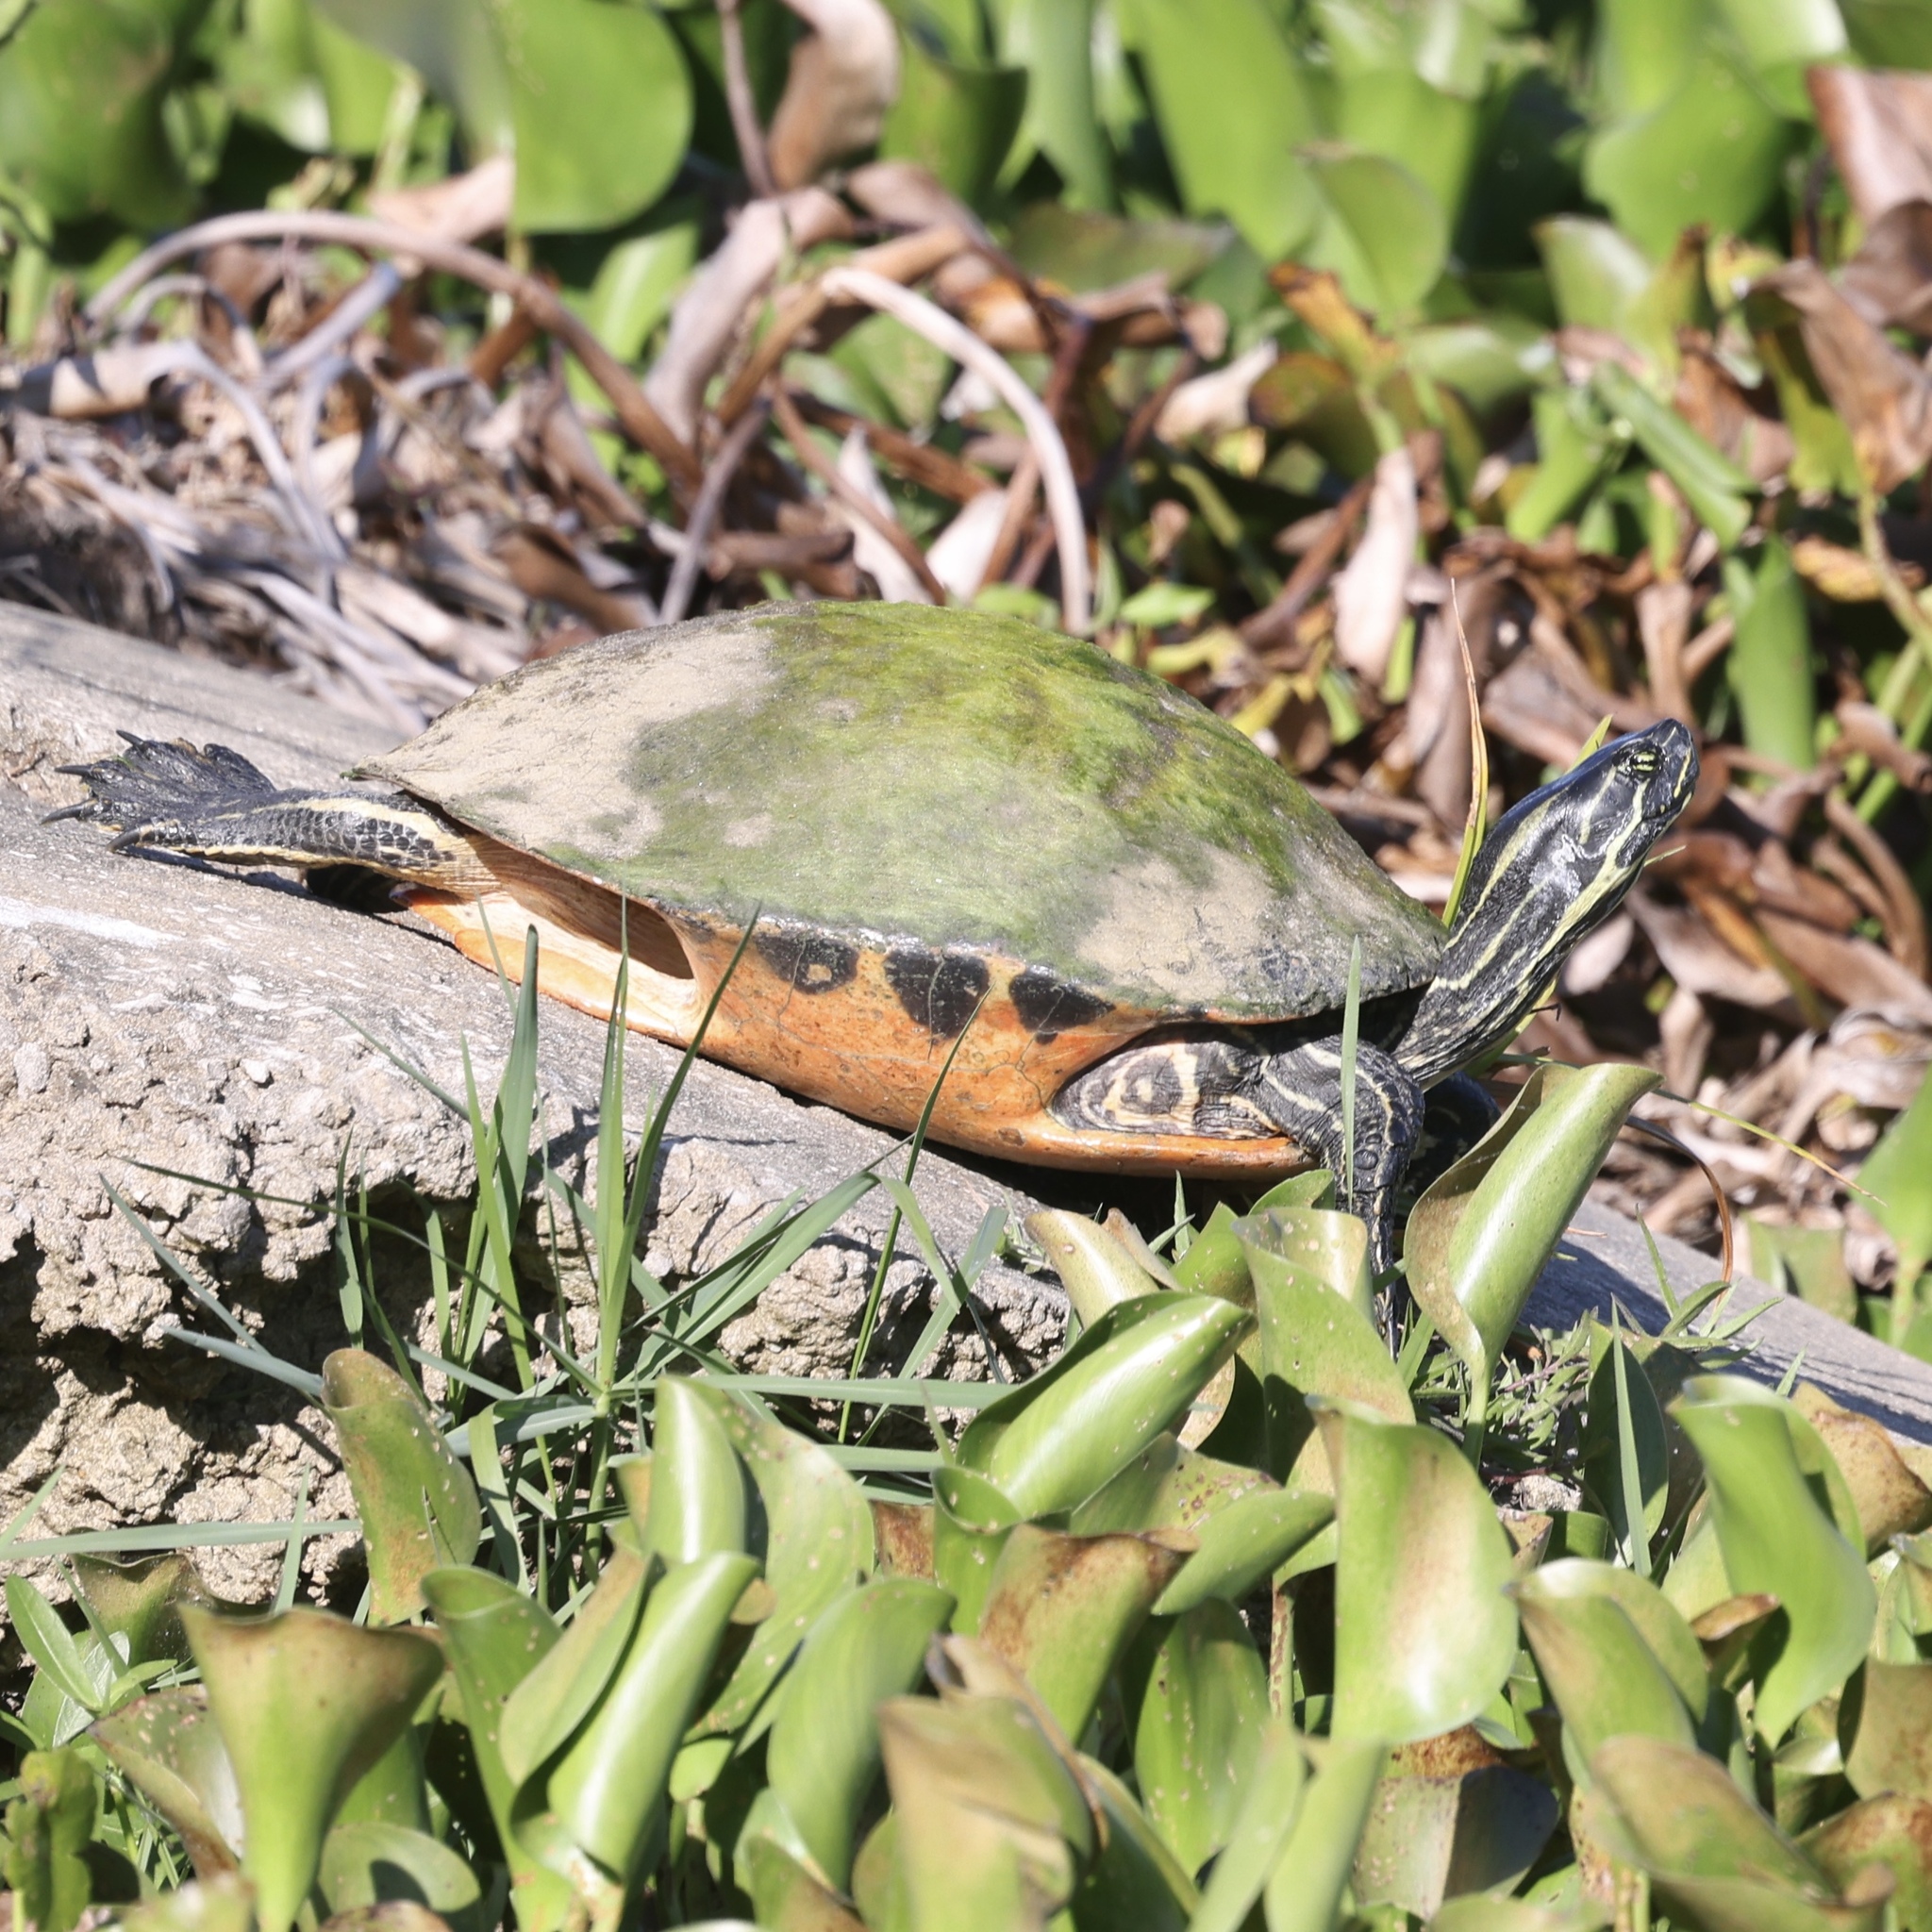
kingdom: Animalia
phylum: Chordata
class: Testudines
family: Emydidae
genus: Pseudemys
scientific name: Pseudemys nelsoni
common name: Florida red-bellied turtle
